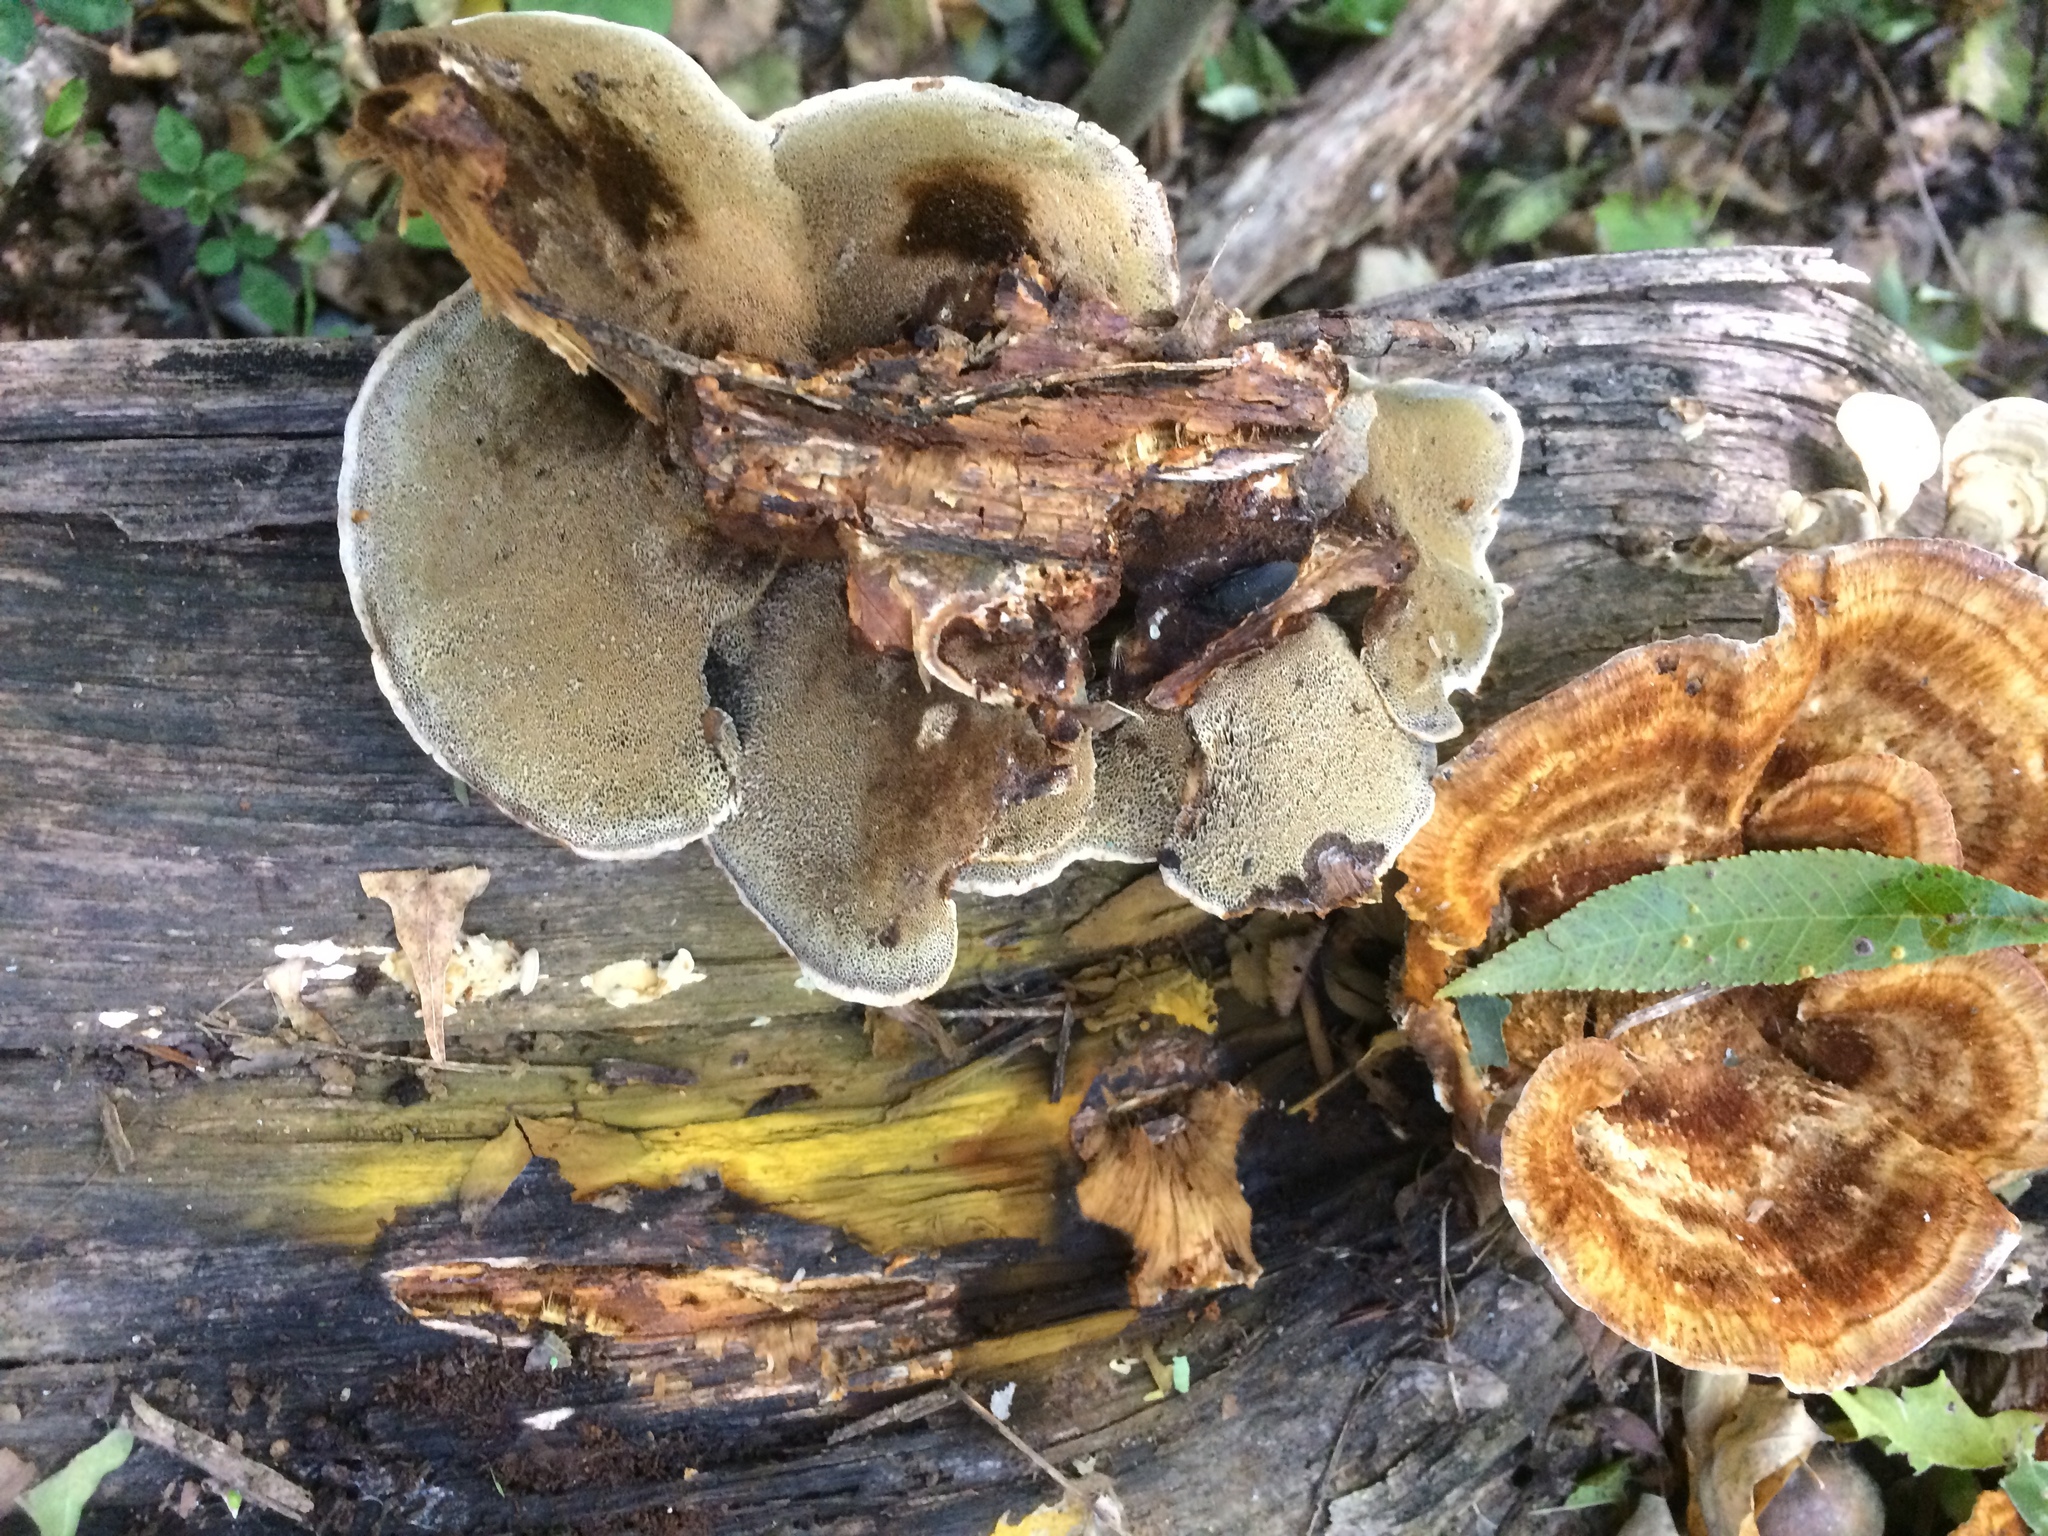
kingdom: Fungi
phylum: Basidiomycota
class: Agaricomycetes
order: Hymenochaetales
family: Hymenochaetaceae
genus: Inonotus
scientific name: Inonotus cuticularis
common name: Clustered bracket
